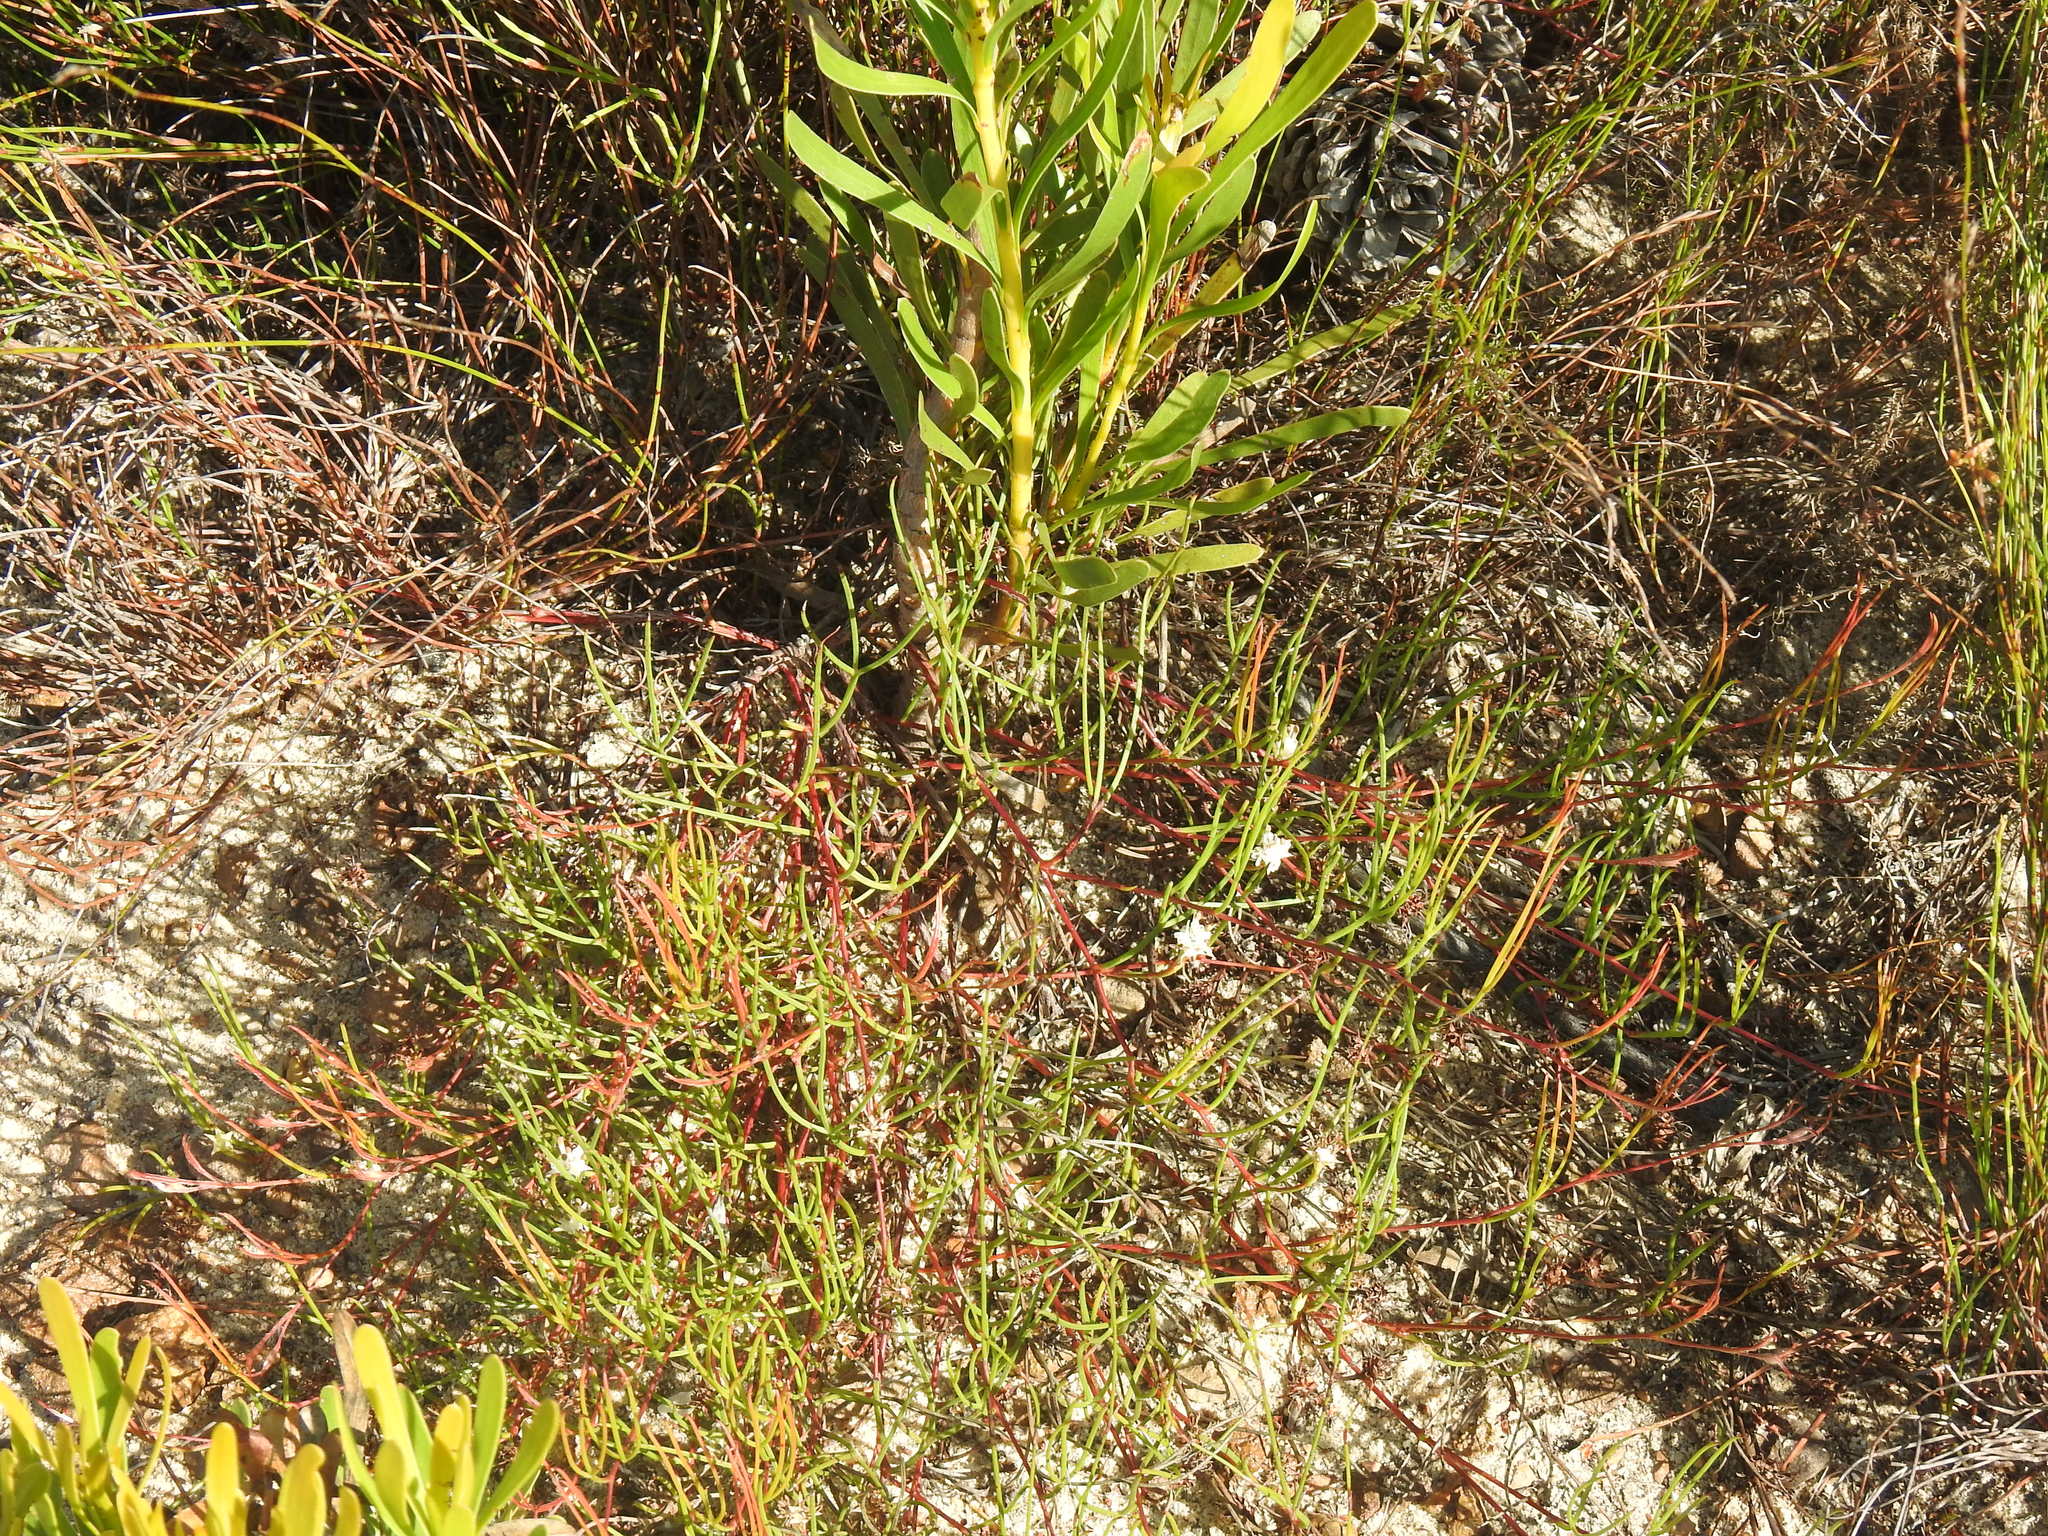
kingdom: Plantae
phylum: Tracheophyta
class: Magnoliopsida
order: Proteales
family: Proteaceae
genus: Serruria
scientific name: Serruria flagellifolia
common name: Houwhoek spiderhead
